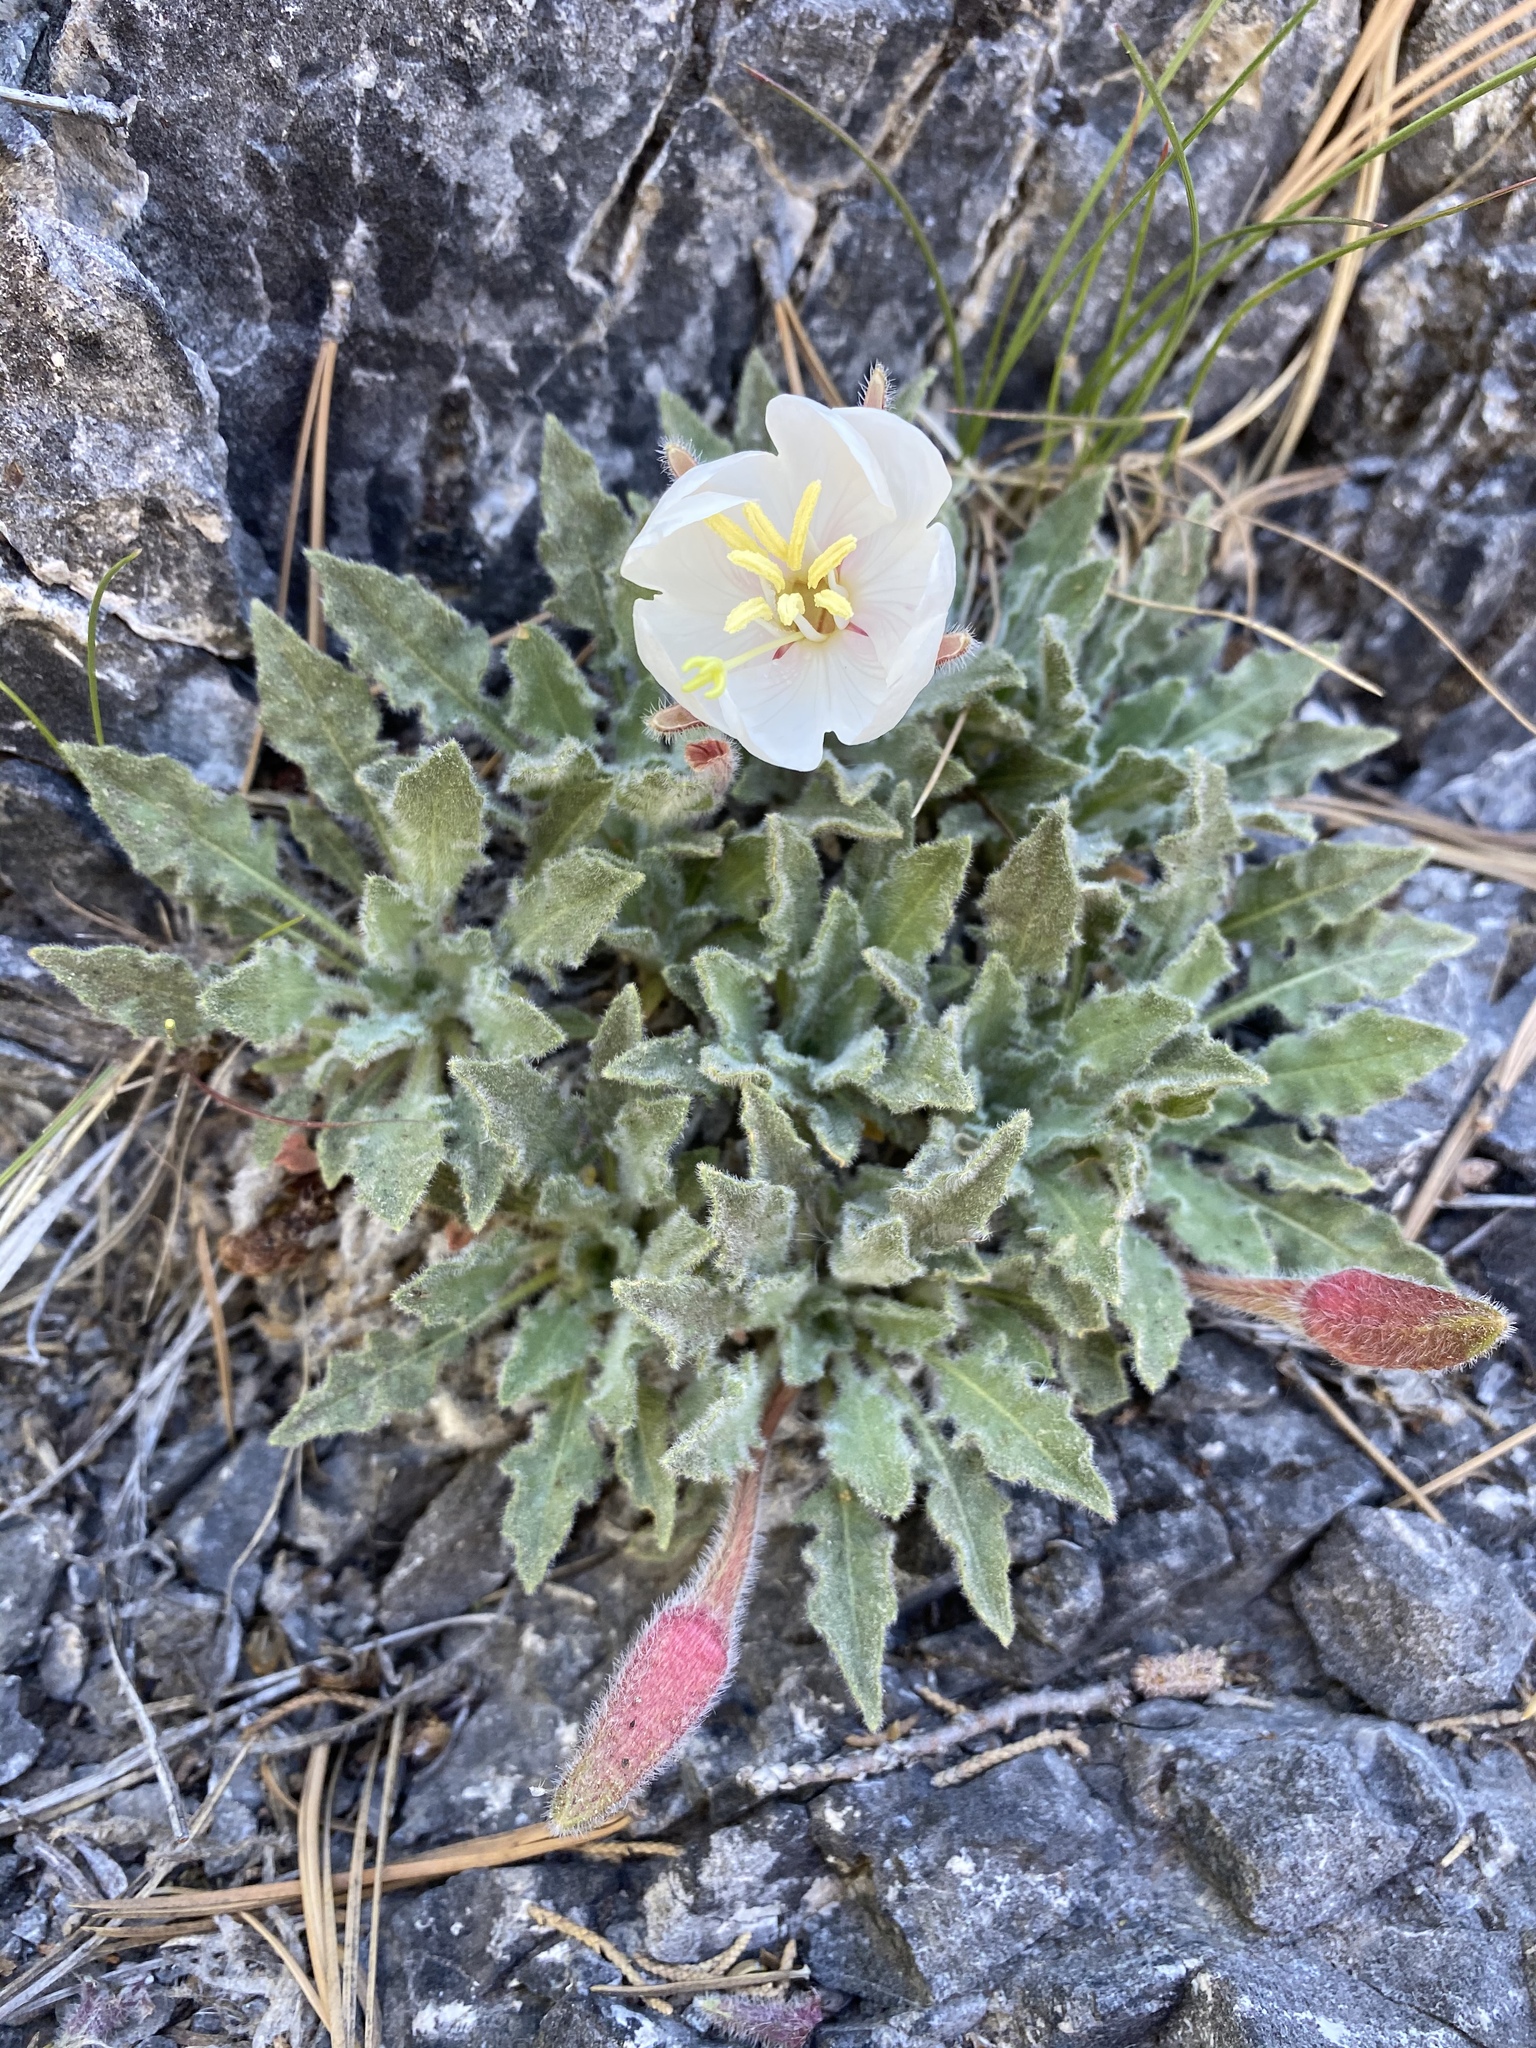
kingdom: Plantae
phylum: Tracheophyta
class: Magnoliopsida
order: Myrtales
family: Onagraceae
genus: Oenothera
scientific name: Oenothera cespitosa
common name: Tufted evening-primrose
